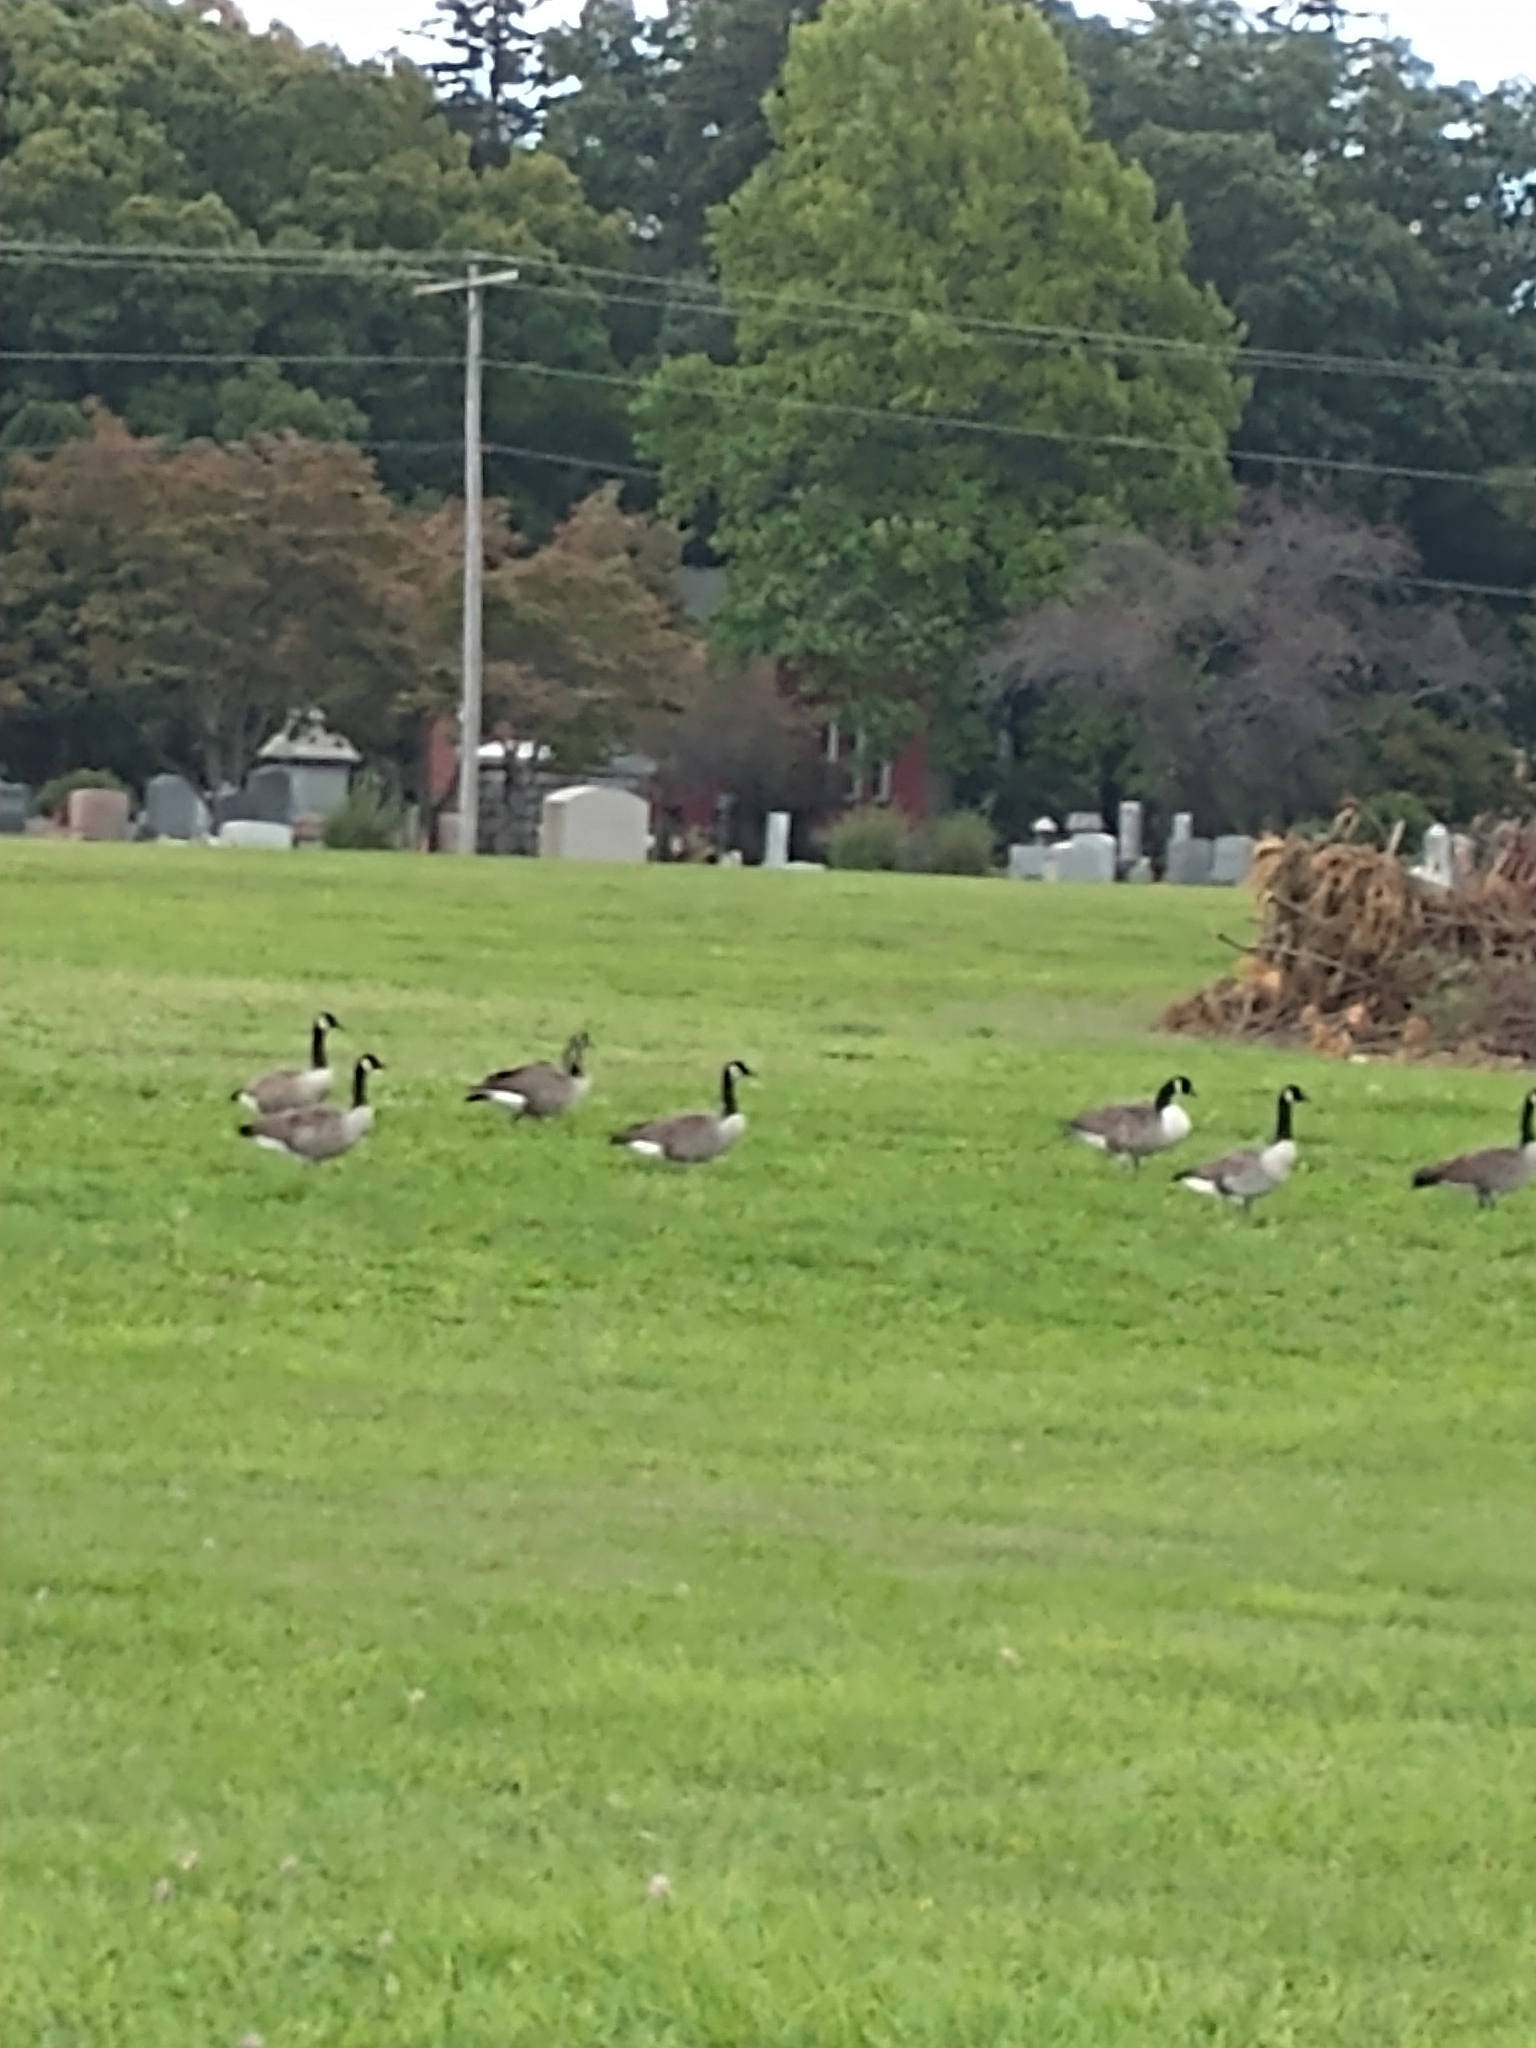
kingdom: Animalia
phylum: Chordata
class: Aves
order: Anseriformes
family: Anatidae
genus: Branta
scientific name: Branta canadensis
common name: Canada goose
